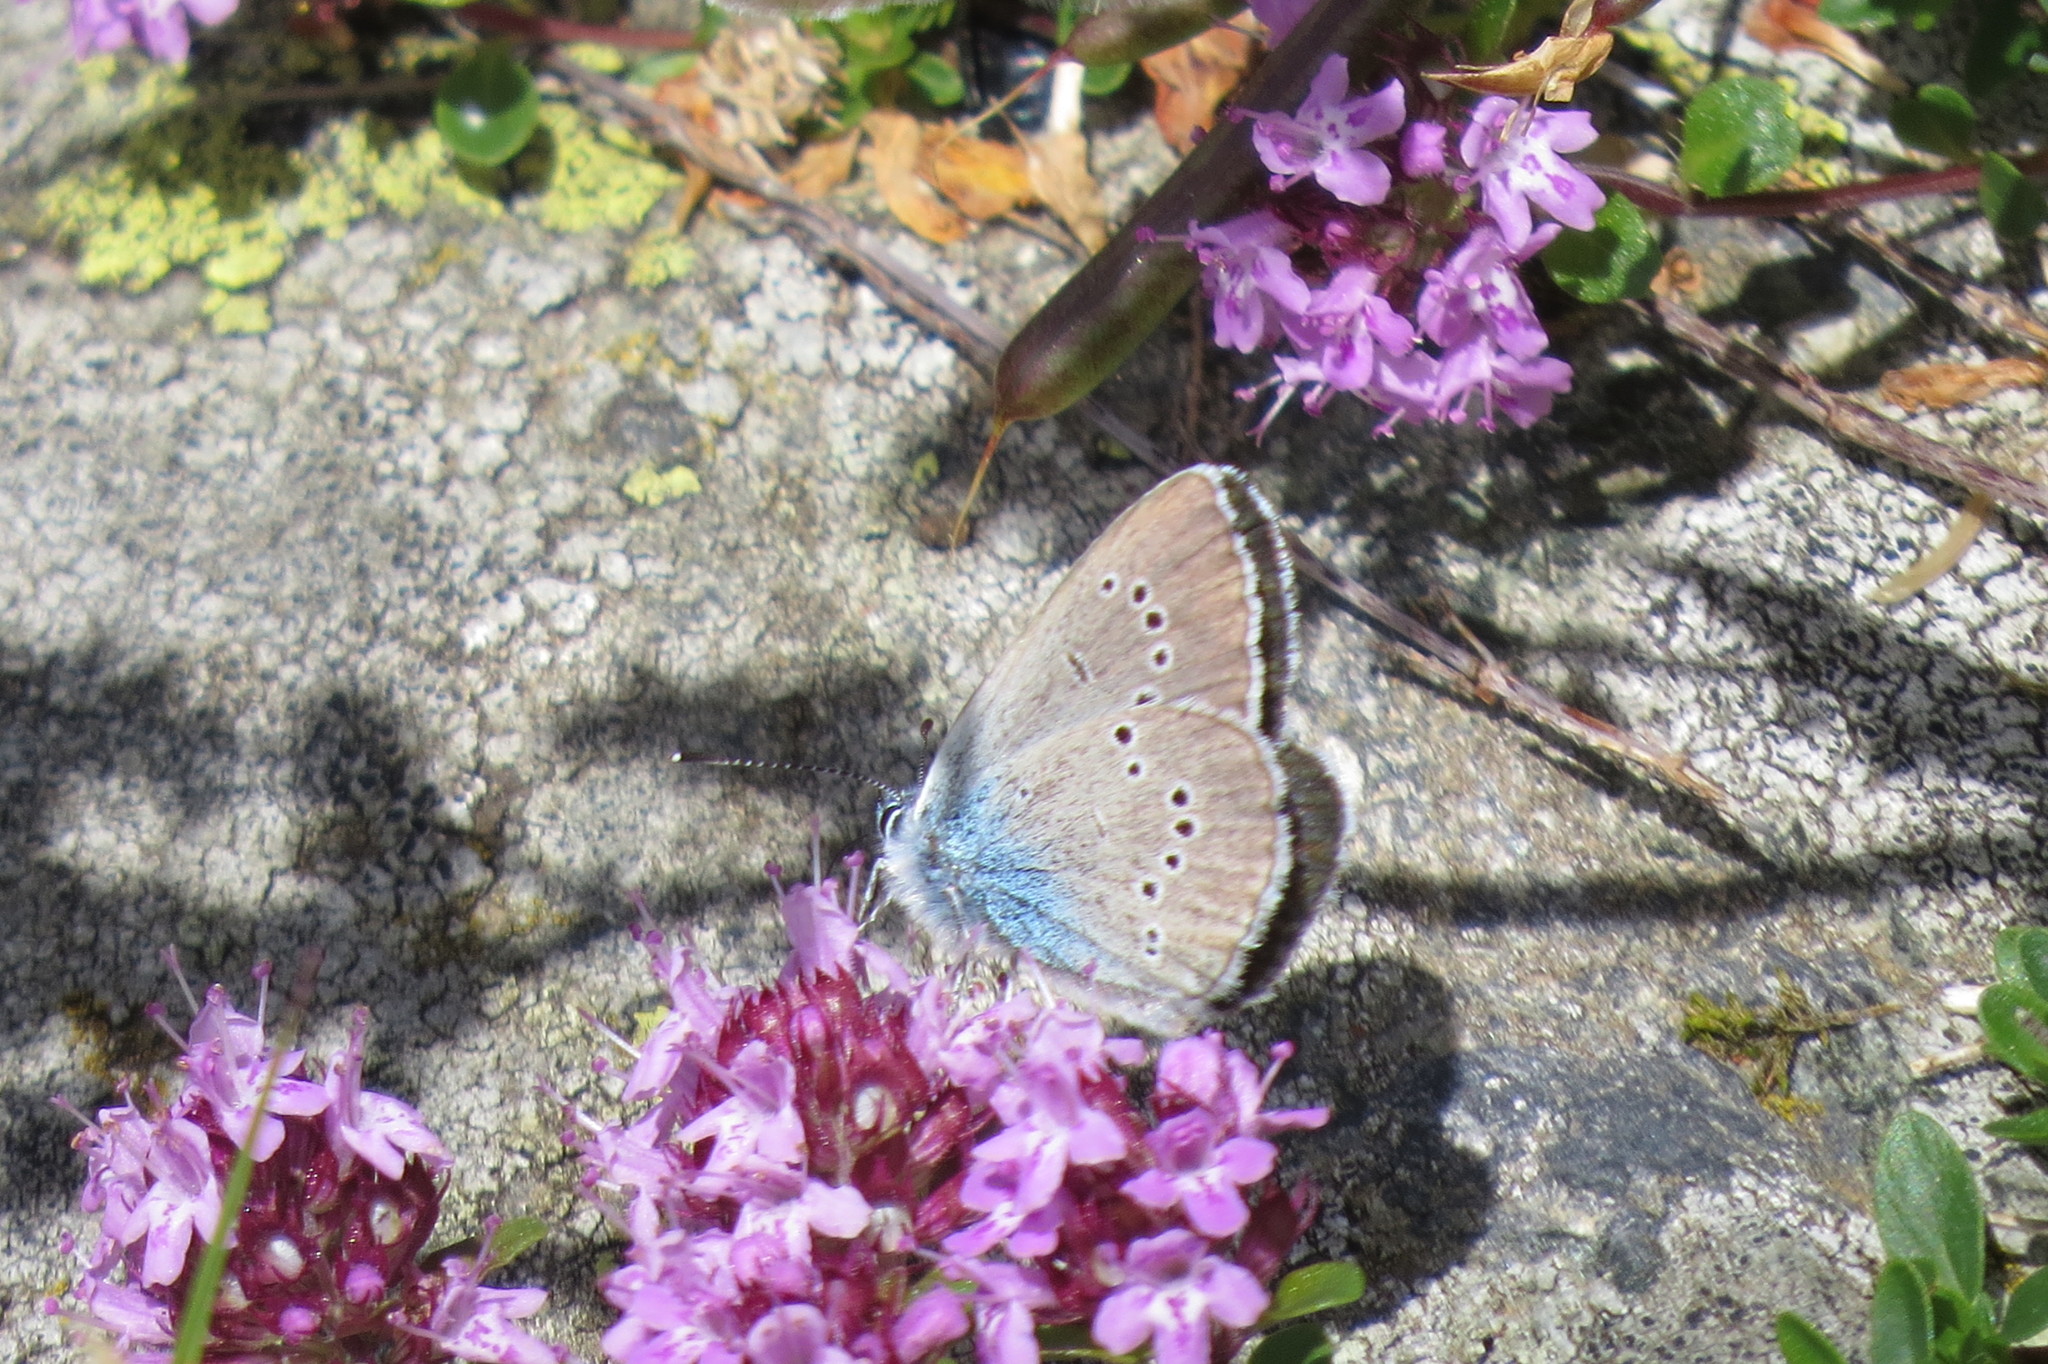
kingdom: Animalia
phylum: Arthropoda
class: Insecta
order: Lepidoptera
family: Lycaenidae
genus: Cyaniris
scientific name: Cyaniris semiargus
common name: Mazarine blue
